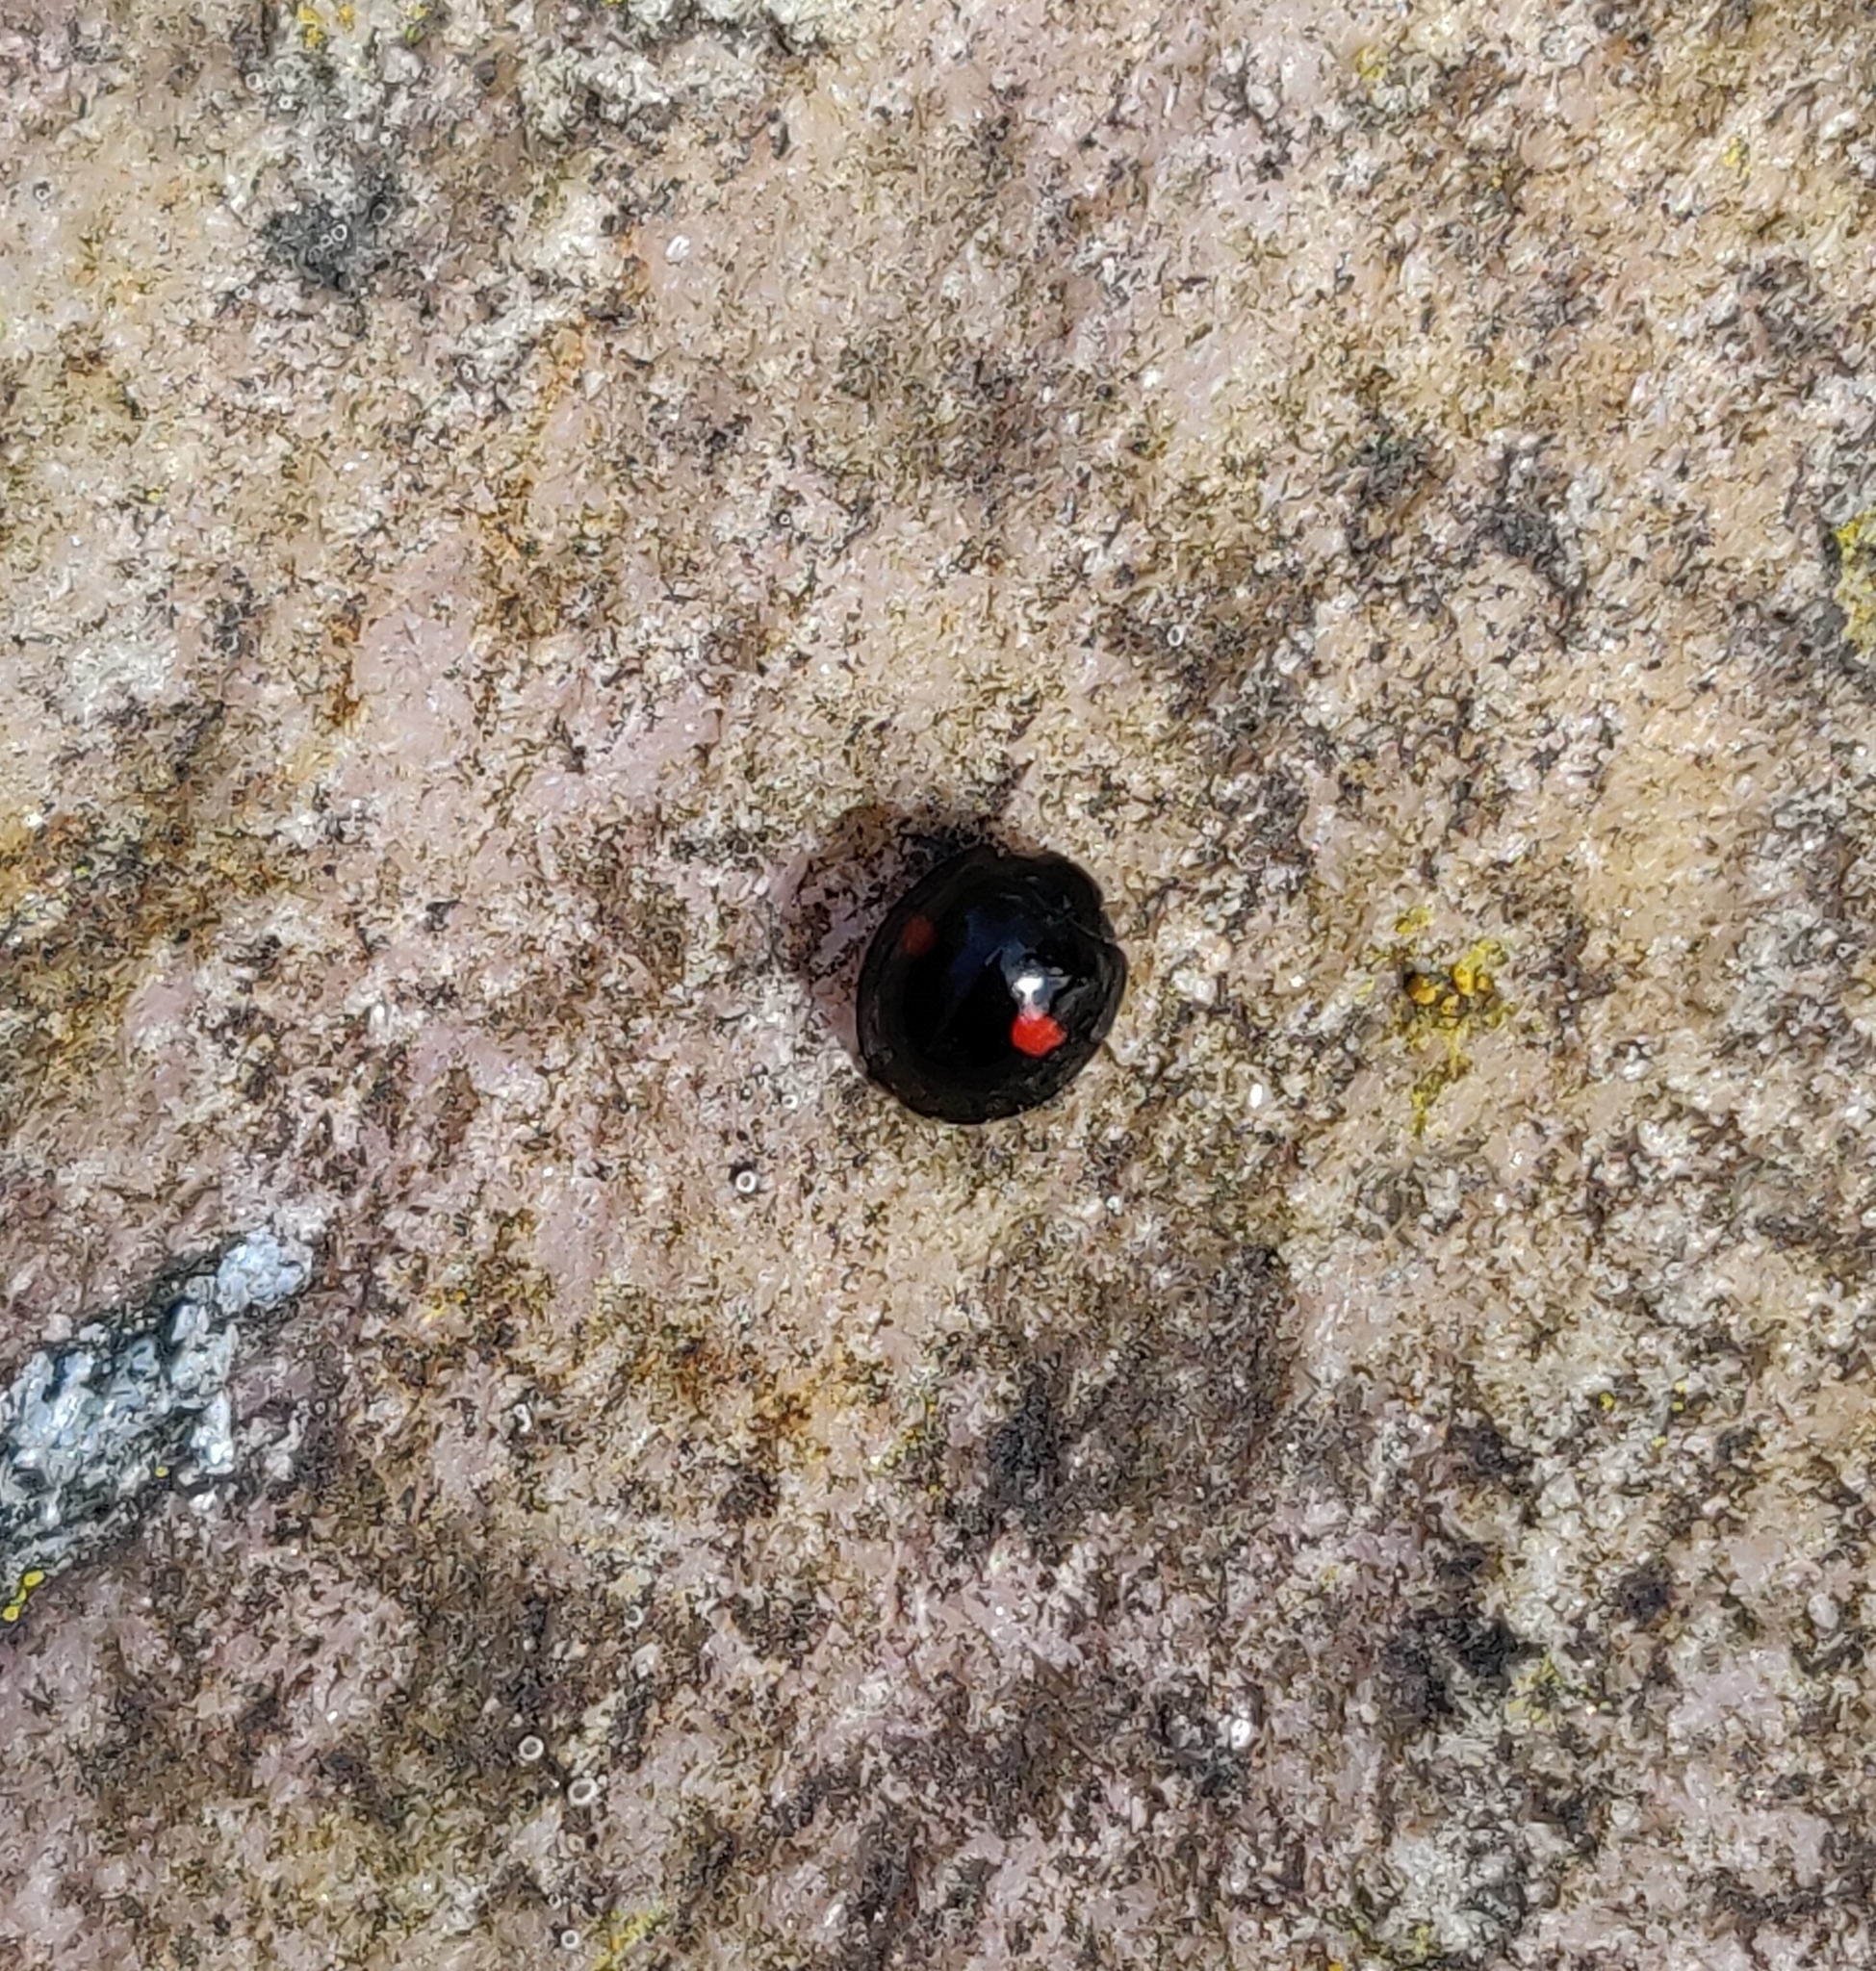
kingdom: Animalia
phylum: Arthropoda
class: Insecta
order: Coleoptera
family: Coccinellidae
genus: Chilocorus
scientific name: Chilocorus renipustulatus
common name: Kidney-spot ladybird
